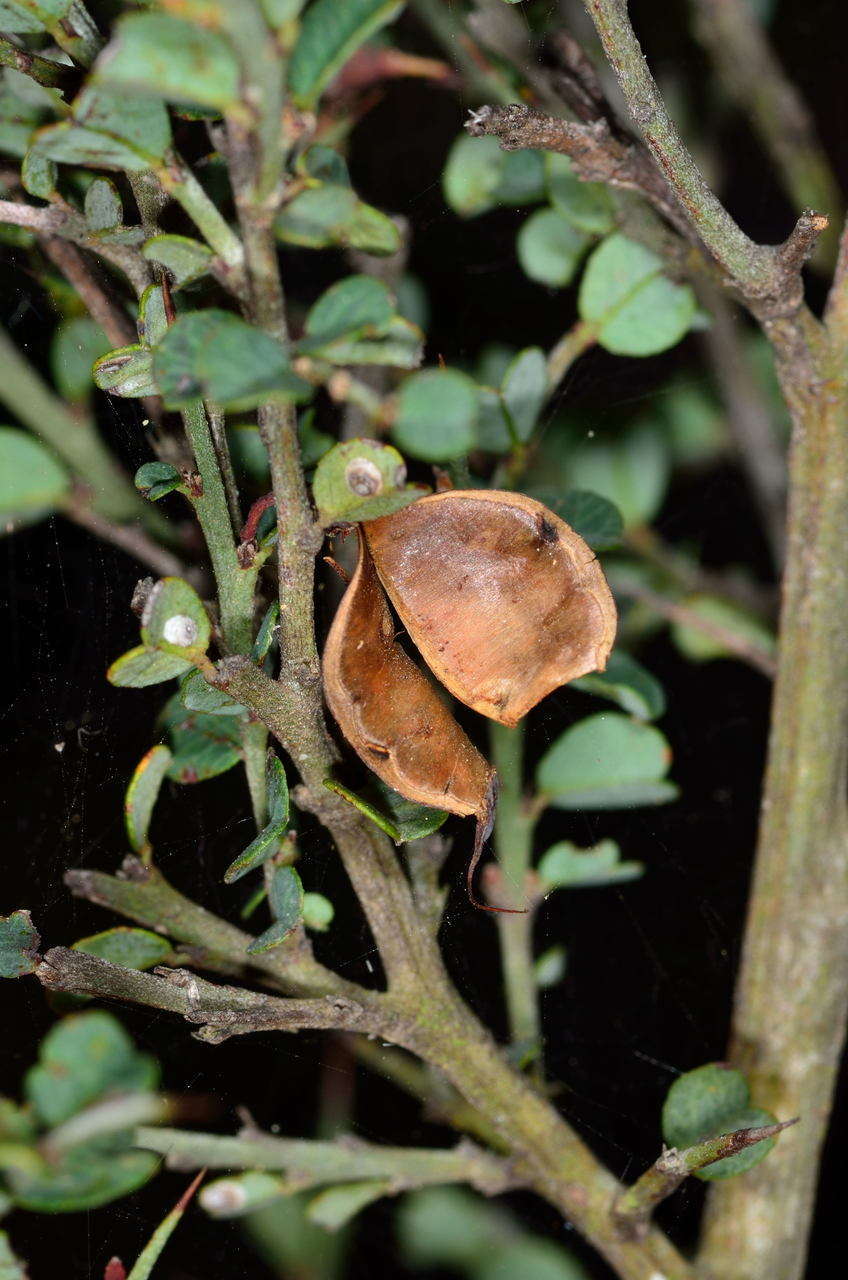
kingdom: Plantae
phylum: Tracheophyta
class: Magnoliopsida
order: Fabales
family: Fabaceae
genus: Bossiaea
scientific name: Bossiaea obcordata
